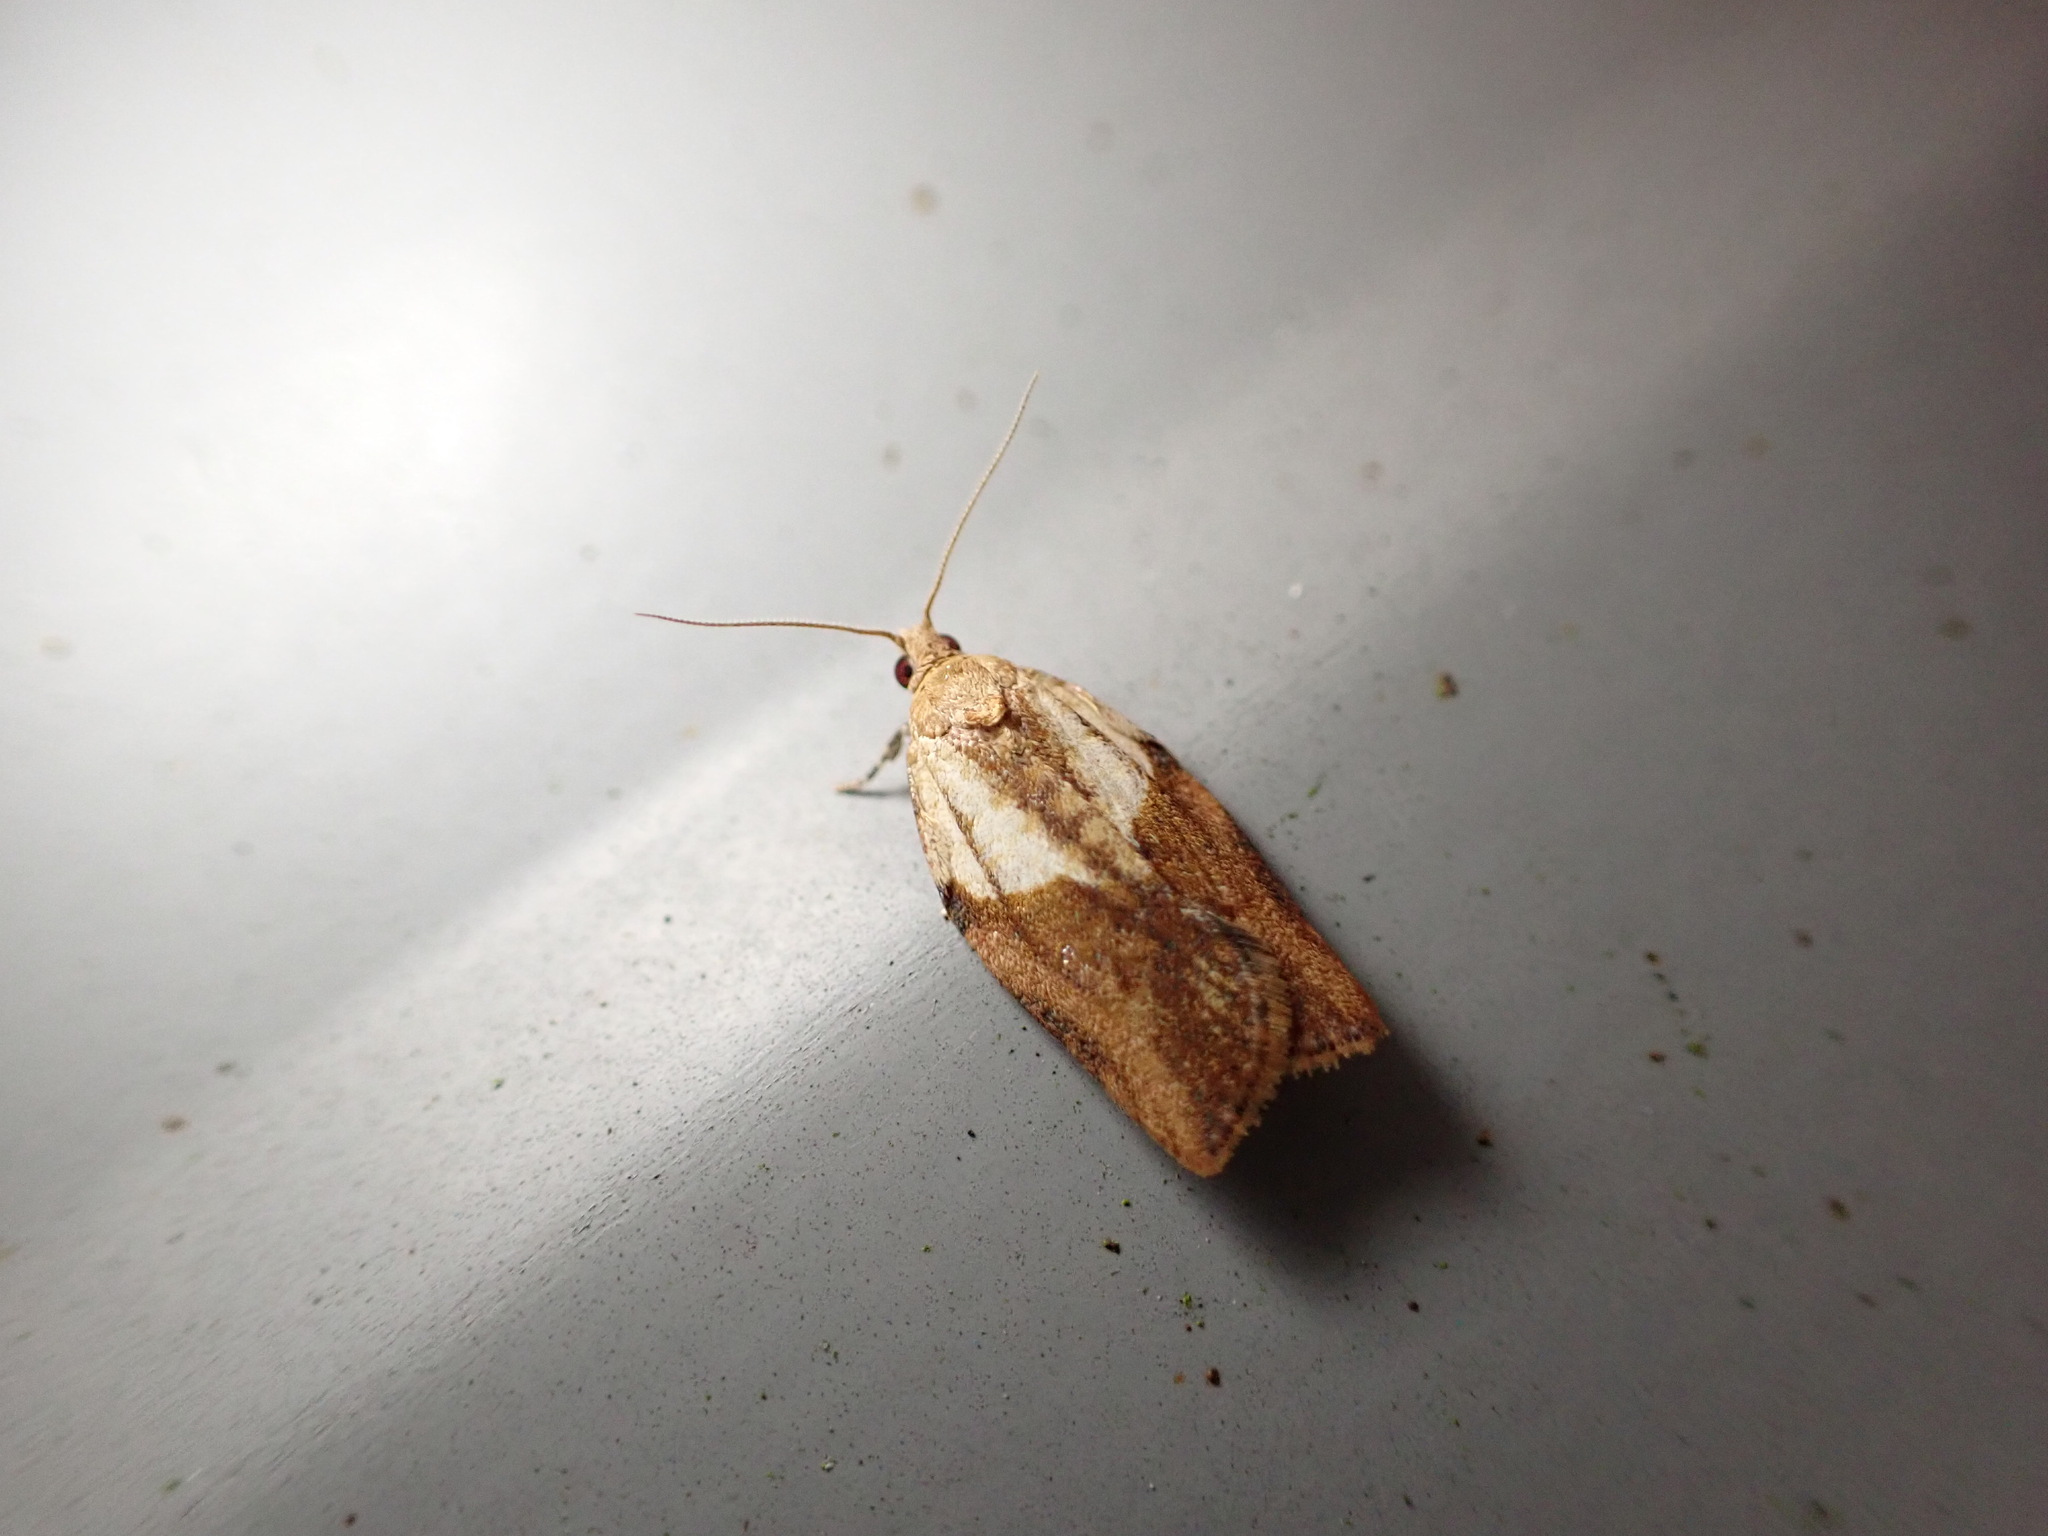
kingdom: Animalia
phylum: Arthropoda
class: Insecta
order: Lepidoptera
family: Tortricidae
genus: Epiphyas
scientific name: Epiphyas postvittana
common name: Light brown apple moth
